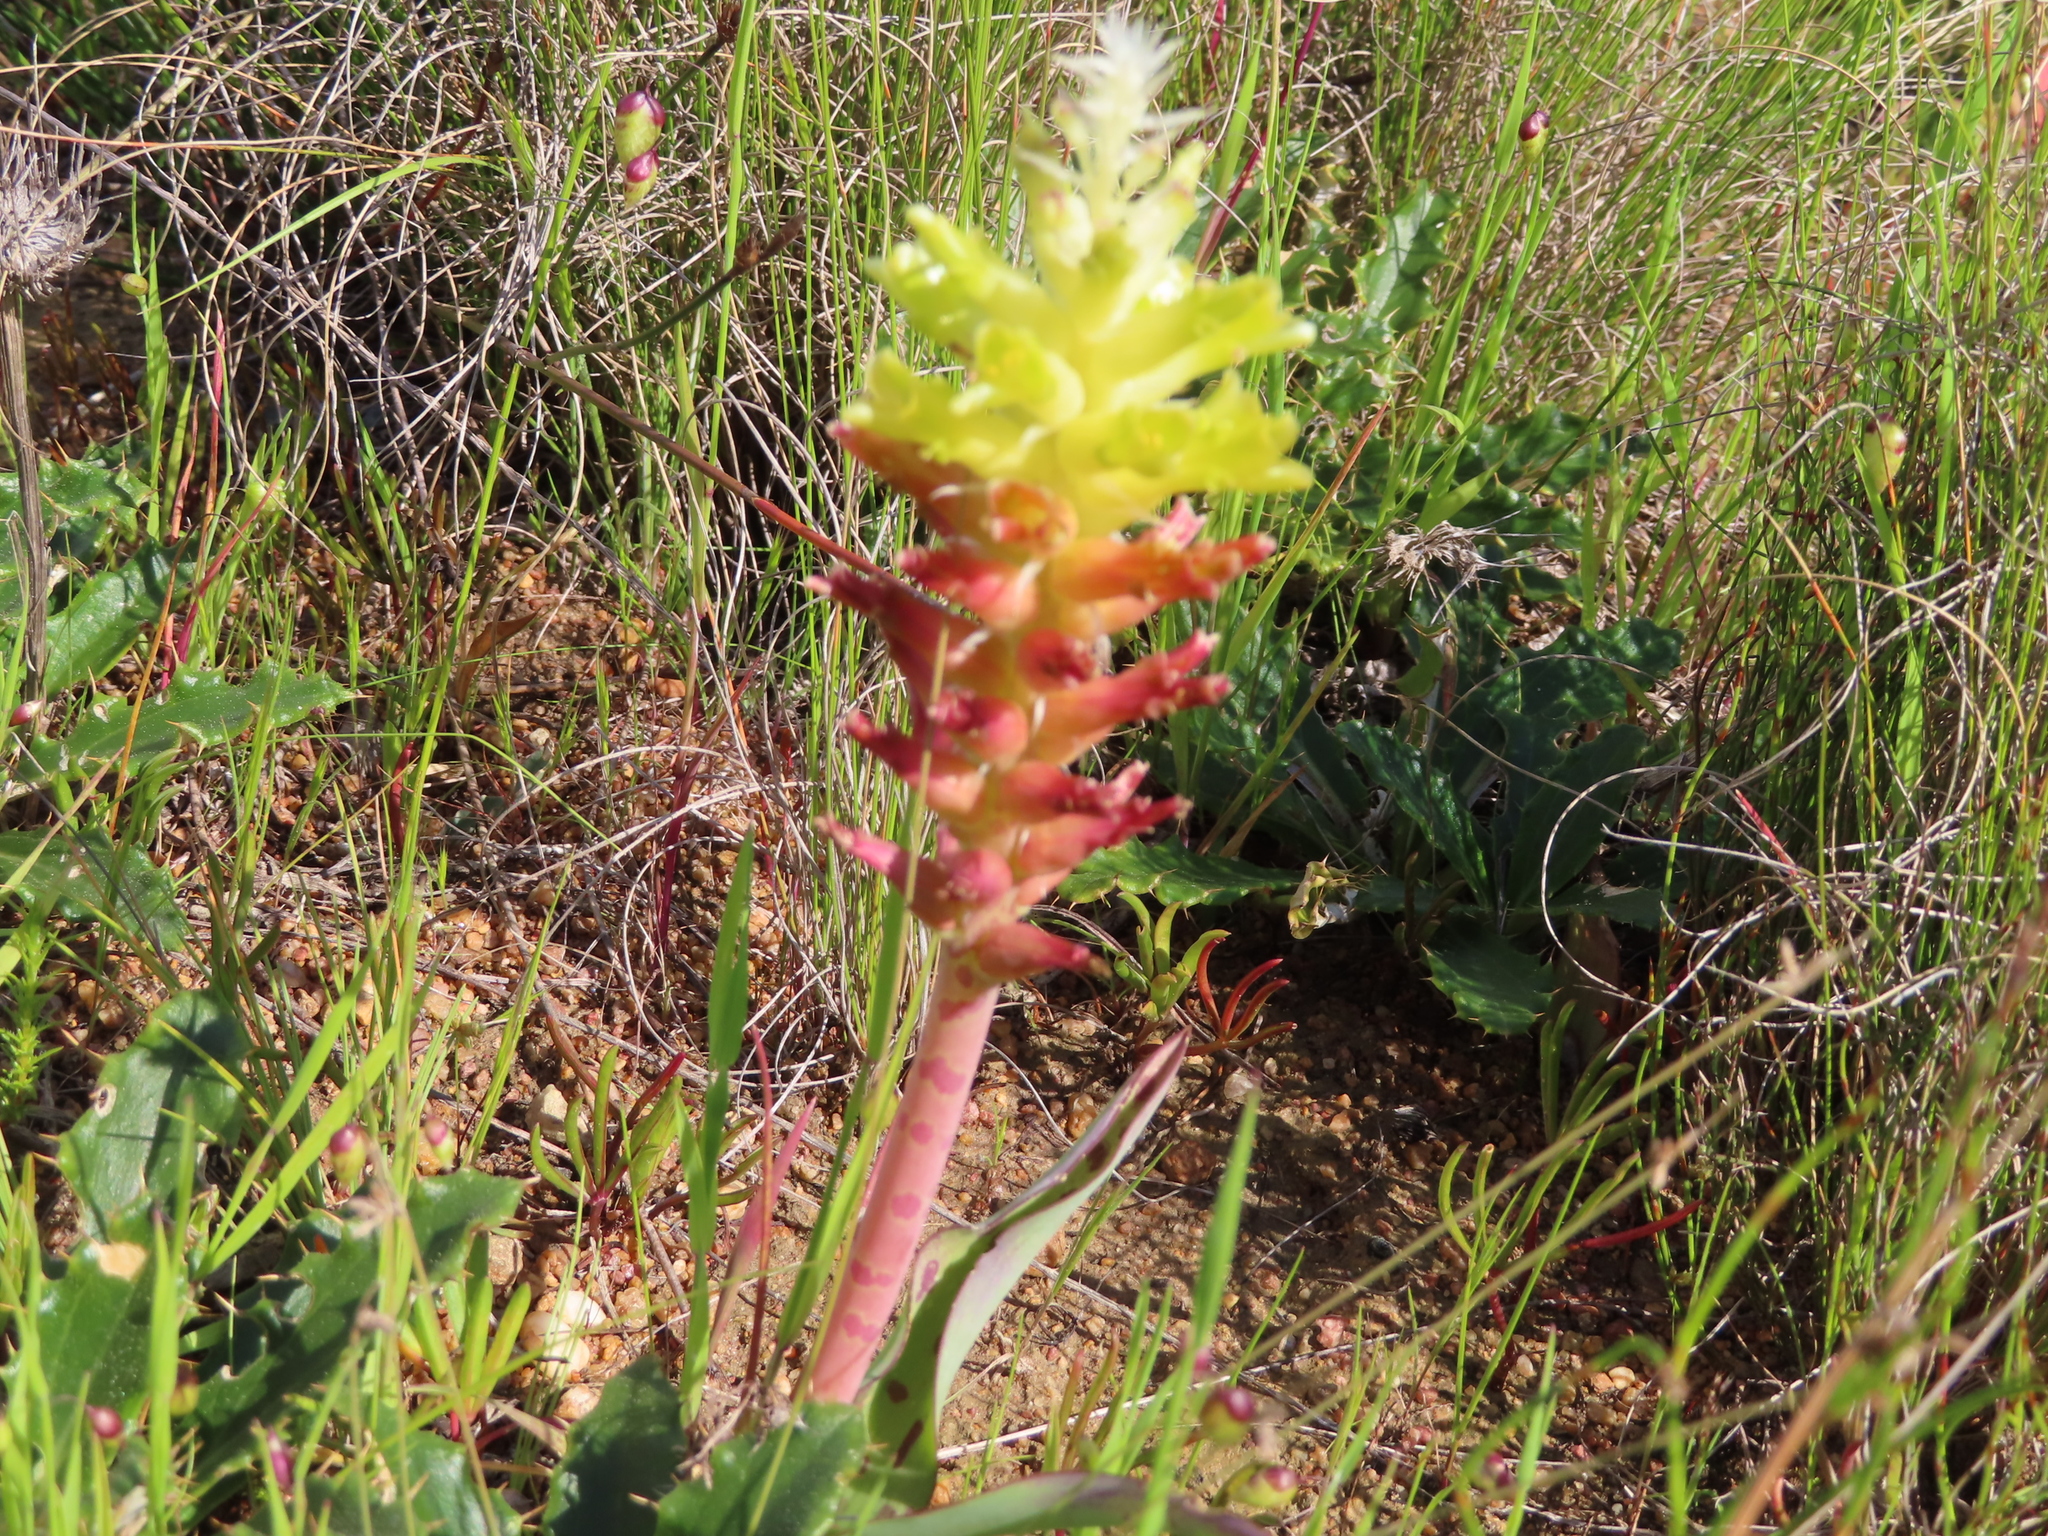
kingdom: Plantae
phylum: Tracheophyta
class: Liliopsida
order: Asparagales
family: Asparagaceae
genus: Lachenalia
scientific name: Lachenalia orchioides
